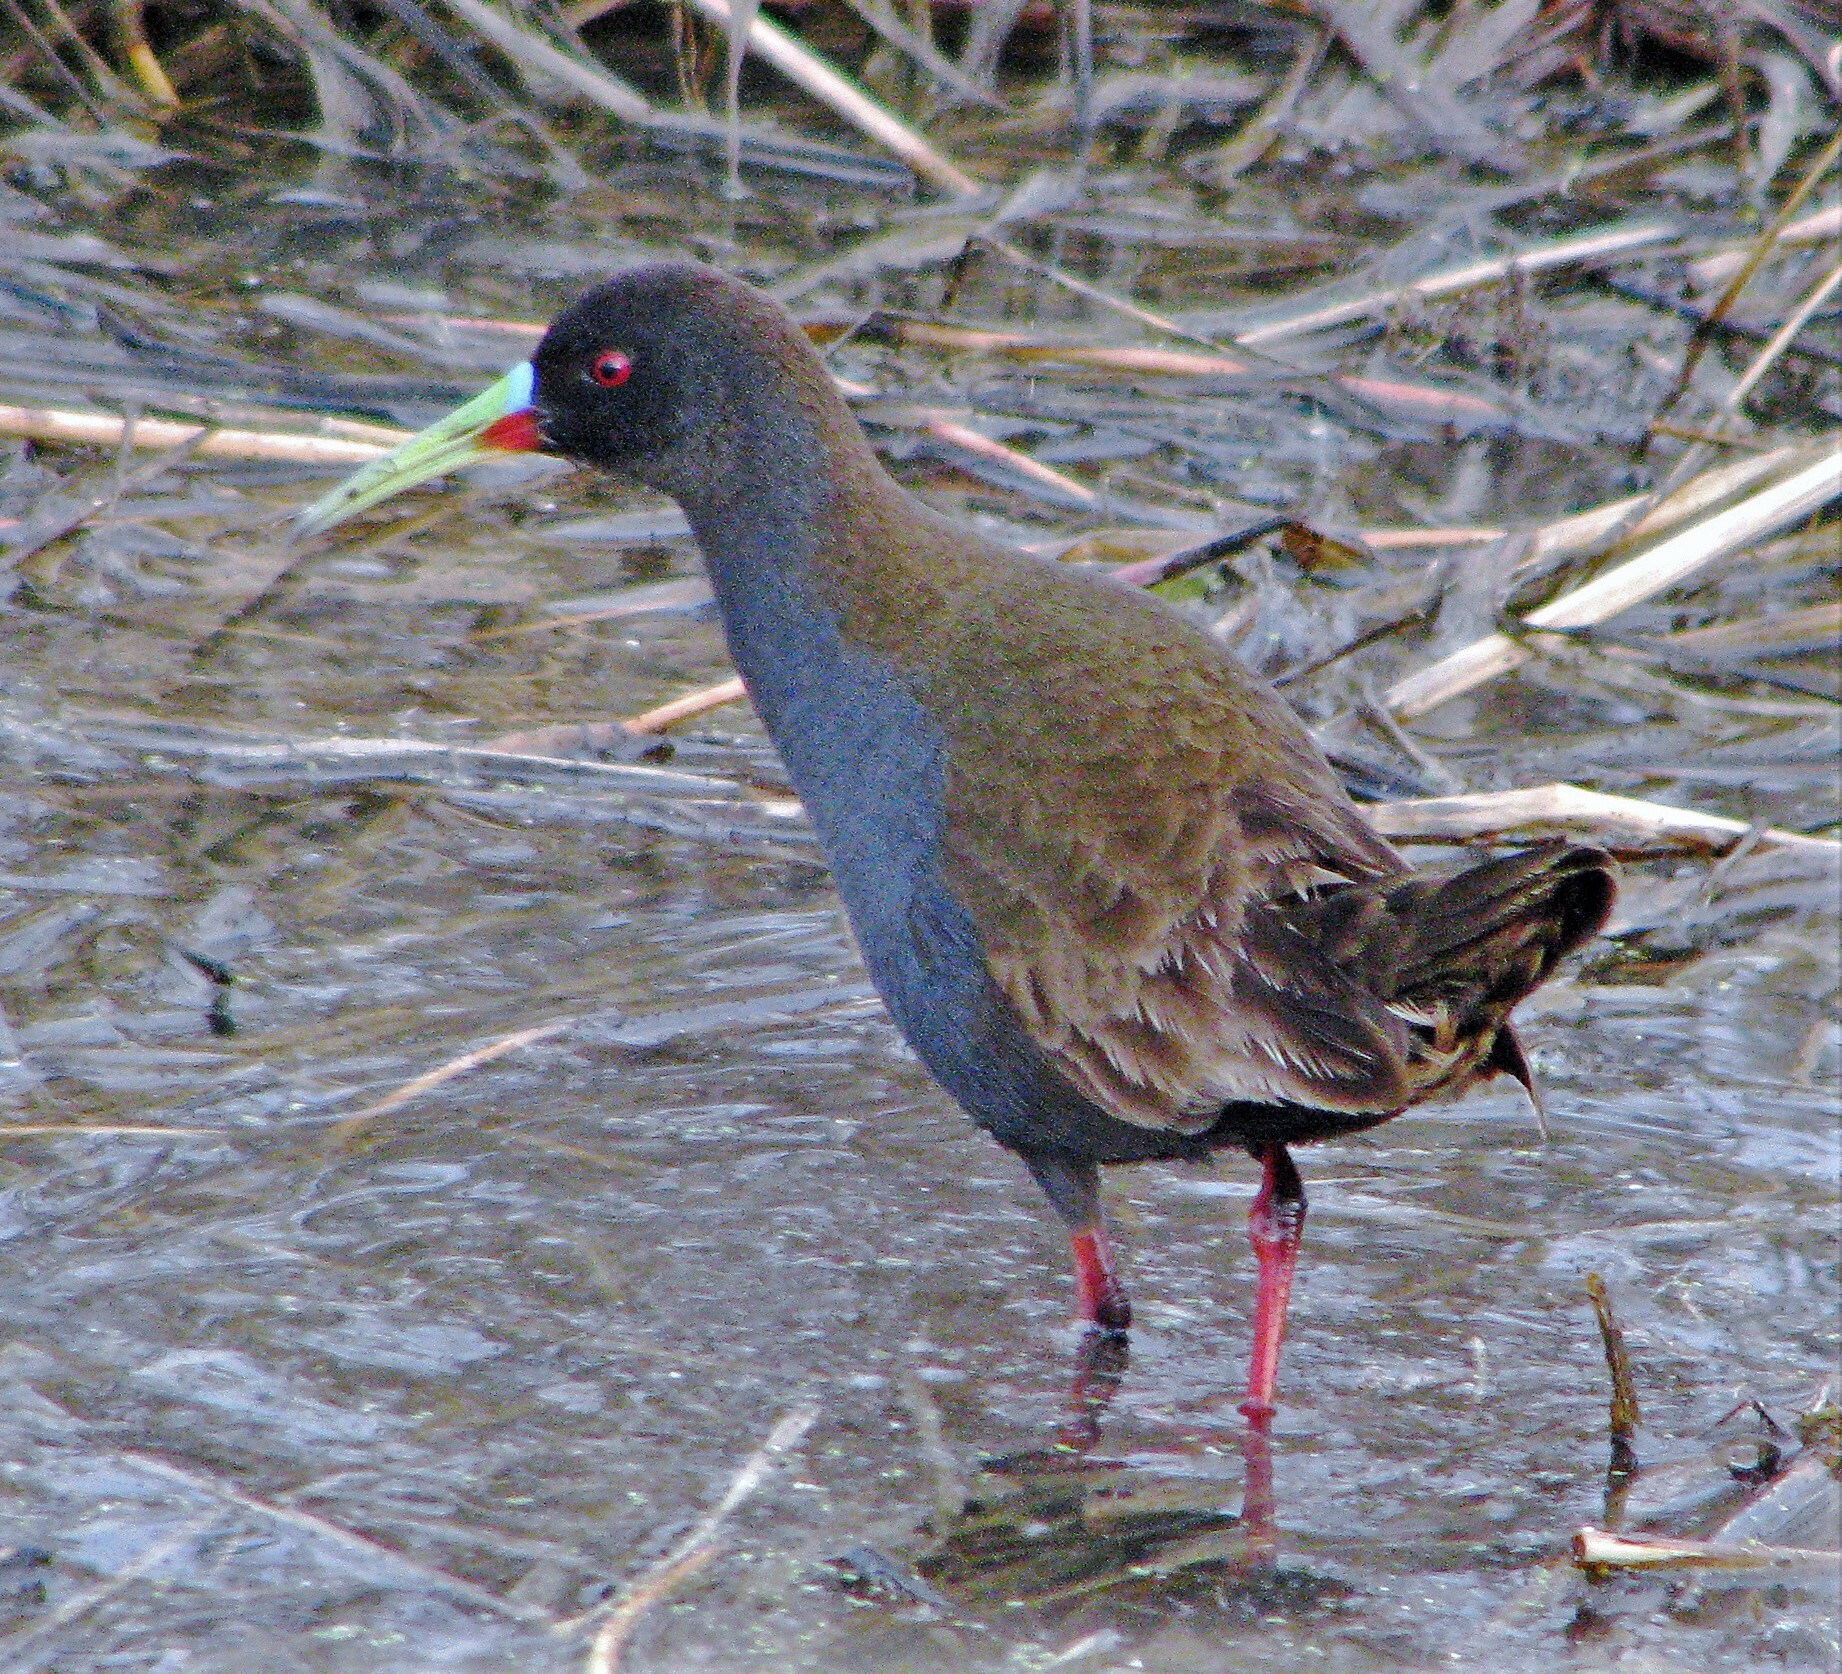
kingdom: Animalia
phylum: Chordata
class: Aves
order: Gruiformes
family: Rallidae
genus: Pardirallus
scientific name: Pardirallus sanguinolentus
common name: Plumbeous rail
